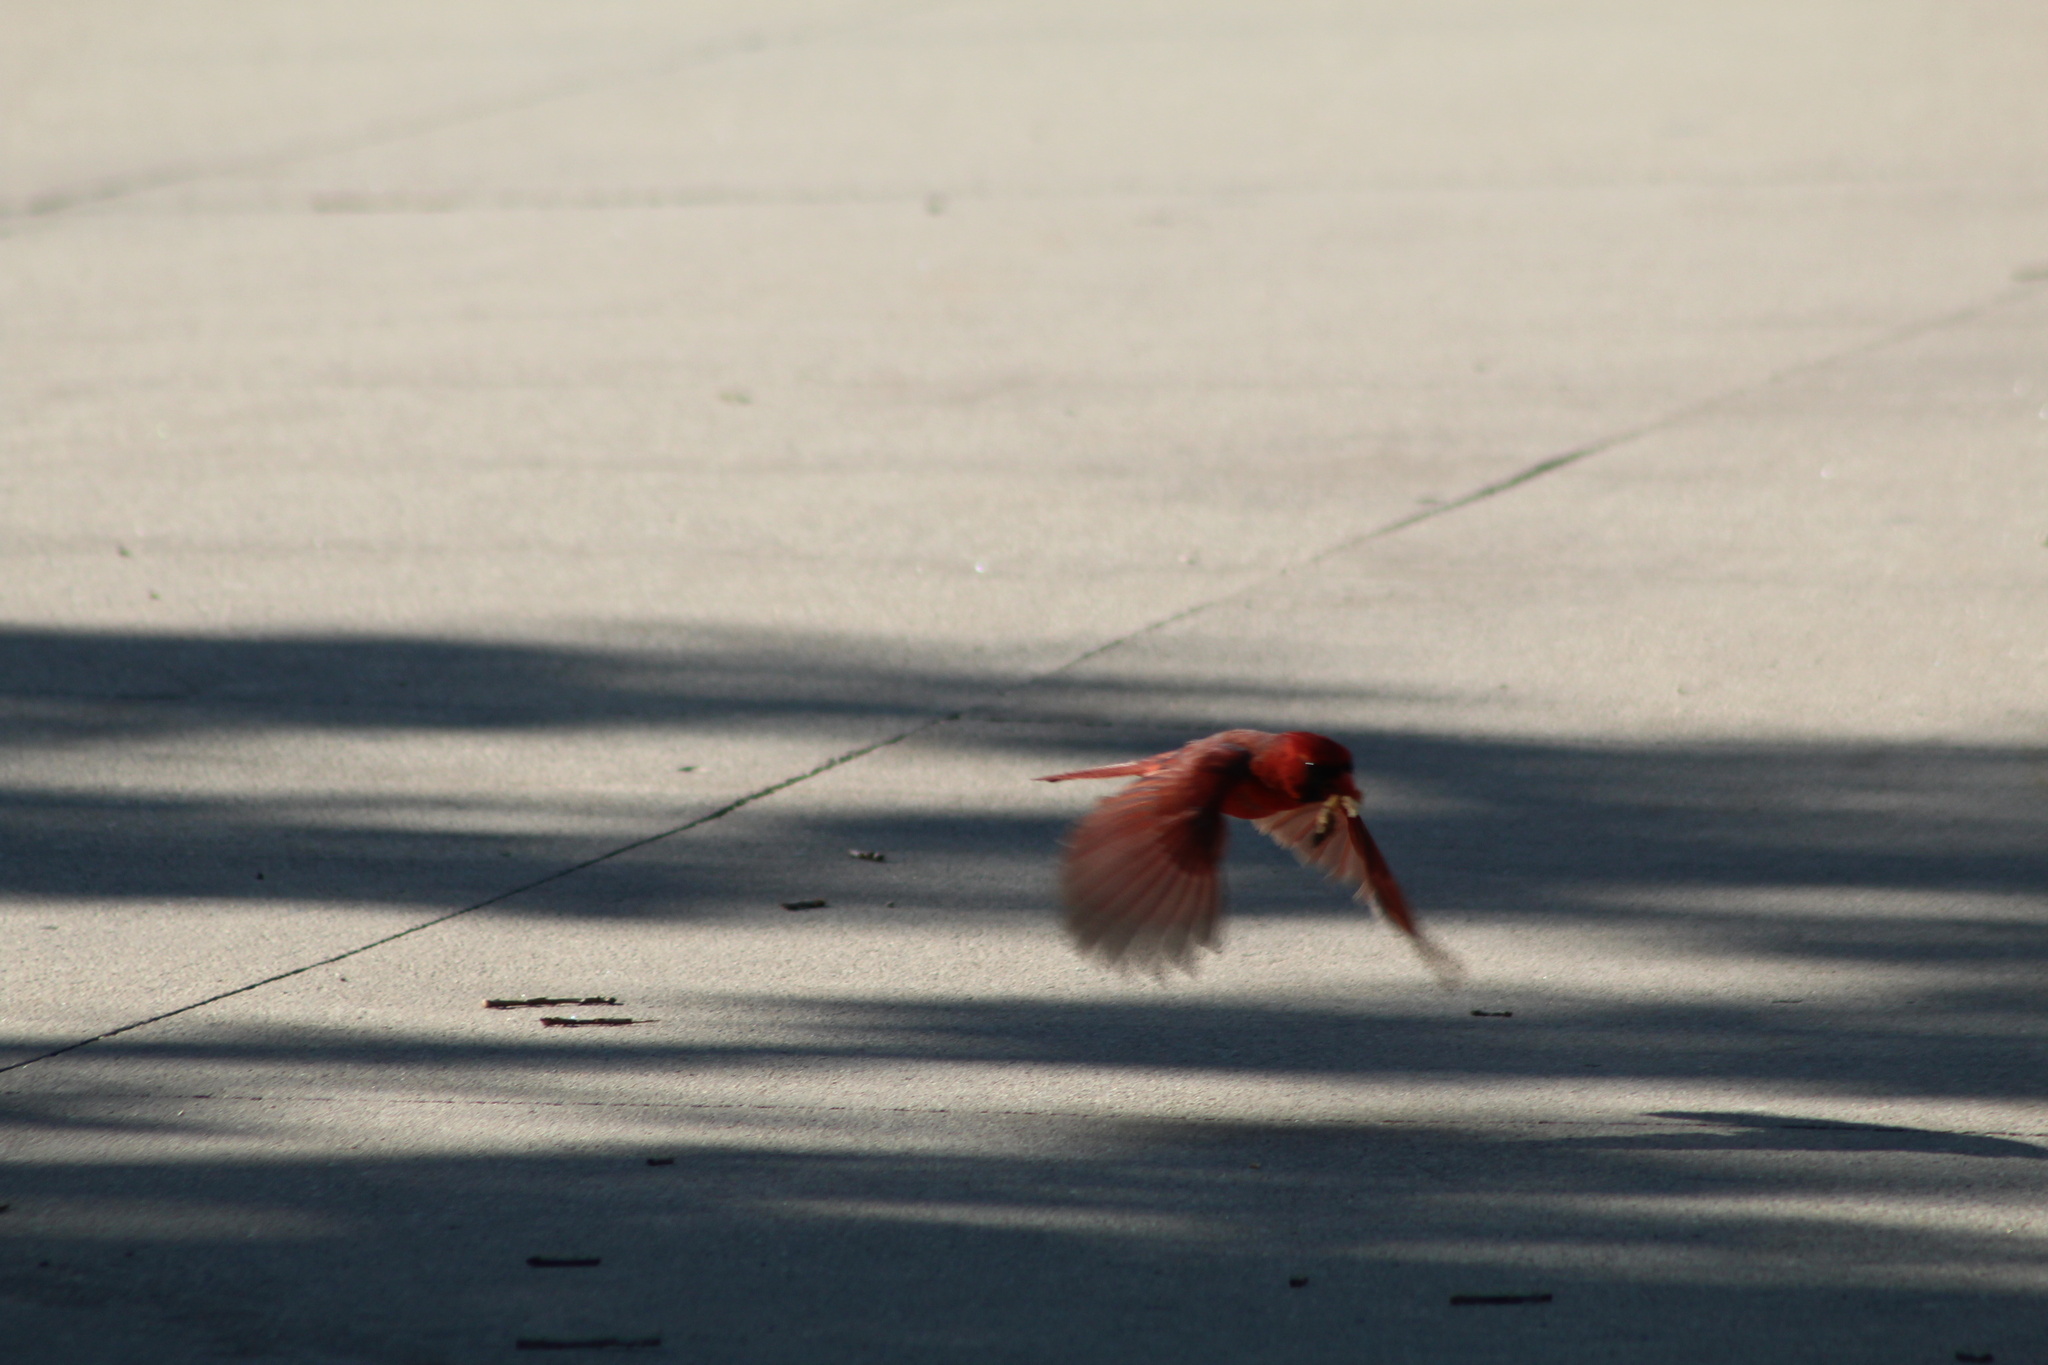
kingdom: Animalia
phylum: Chordata
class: Aves
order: Passeriformes
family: Cardinalidae
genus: Cardinalis
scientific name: Cardinalis cardinalis
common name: Northern cardinal
